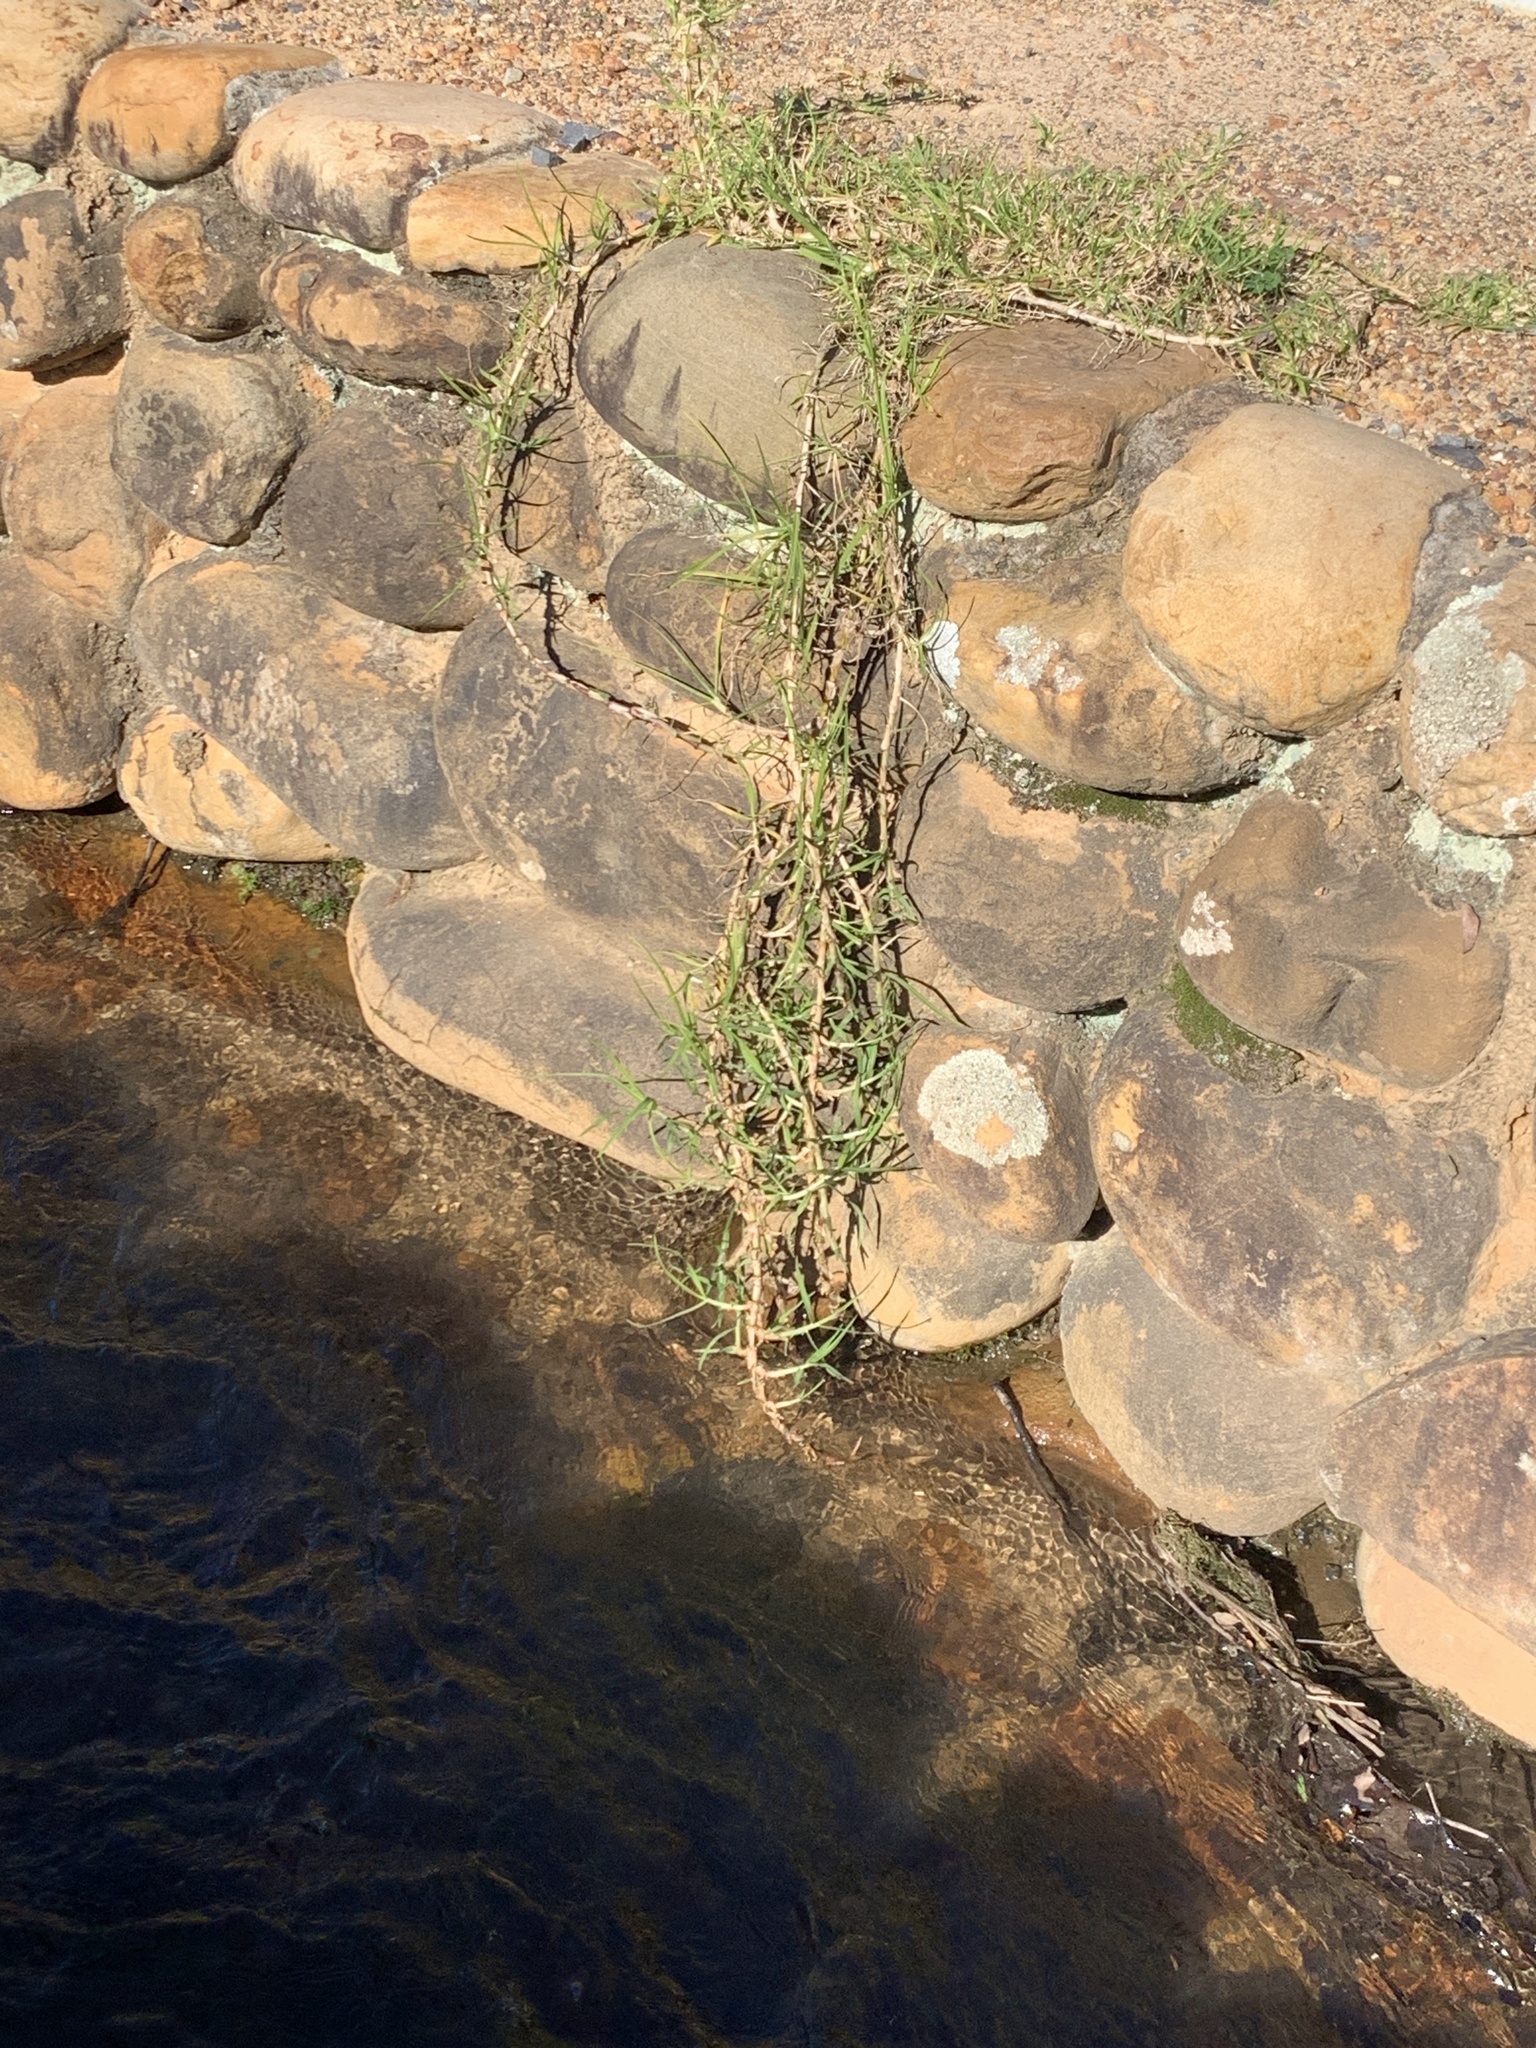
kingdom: Plantae
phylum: Tracheophyta
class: Liliopsida
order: Poales
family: Poaceae
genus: Cenchrus
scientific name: Cenchrus clandestinus
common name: Kikuyugrass
